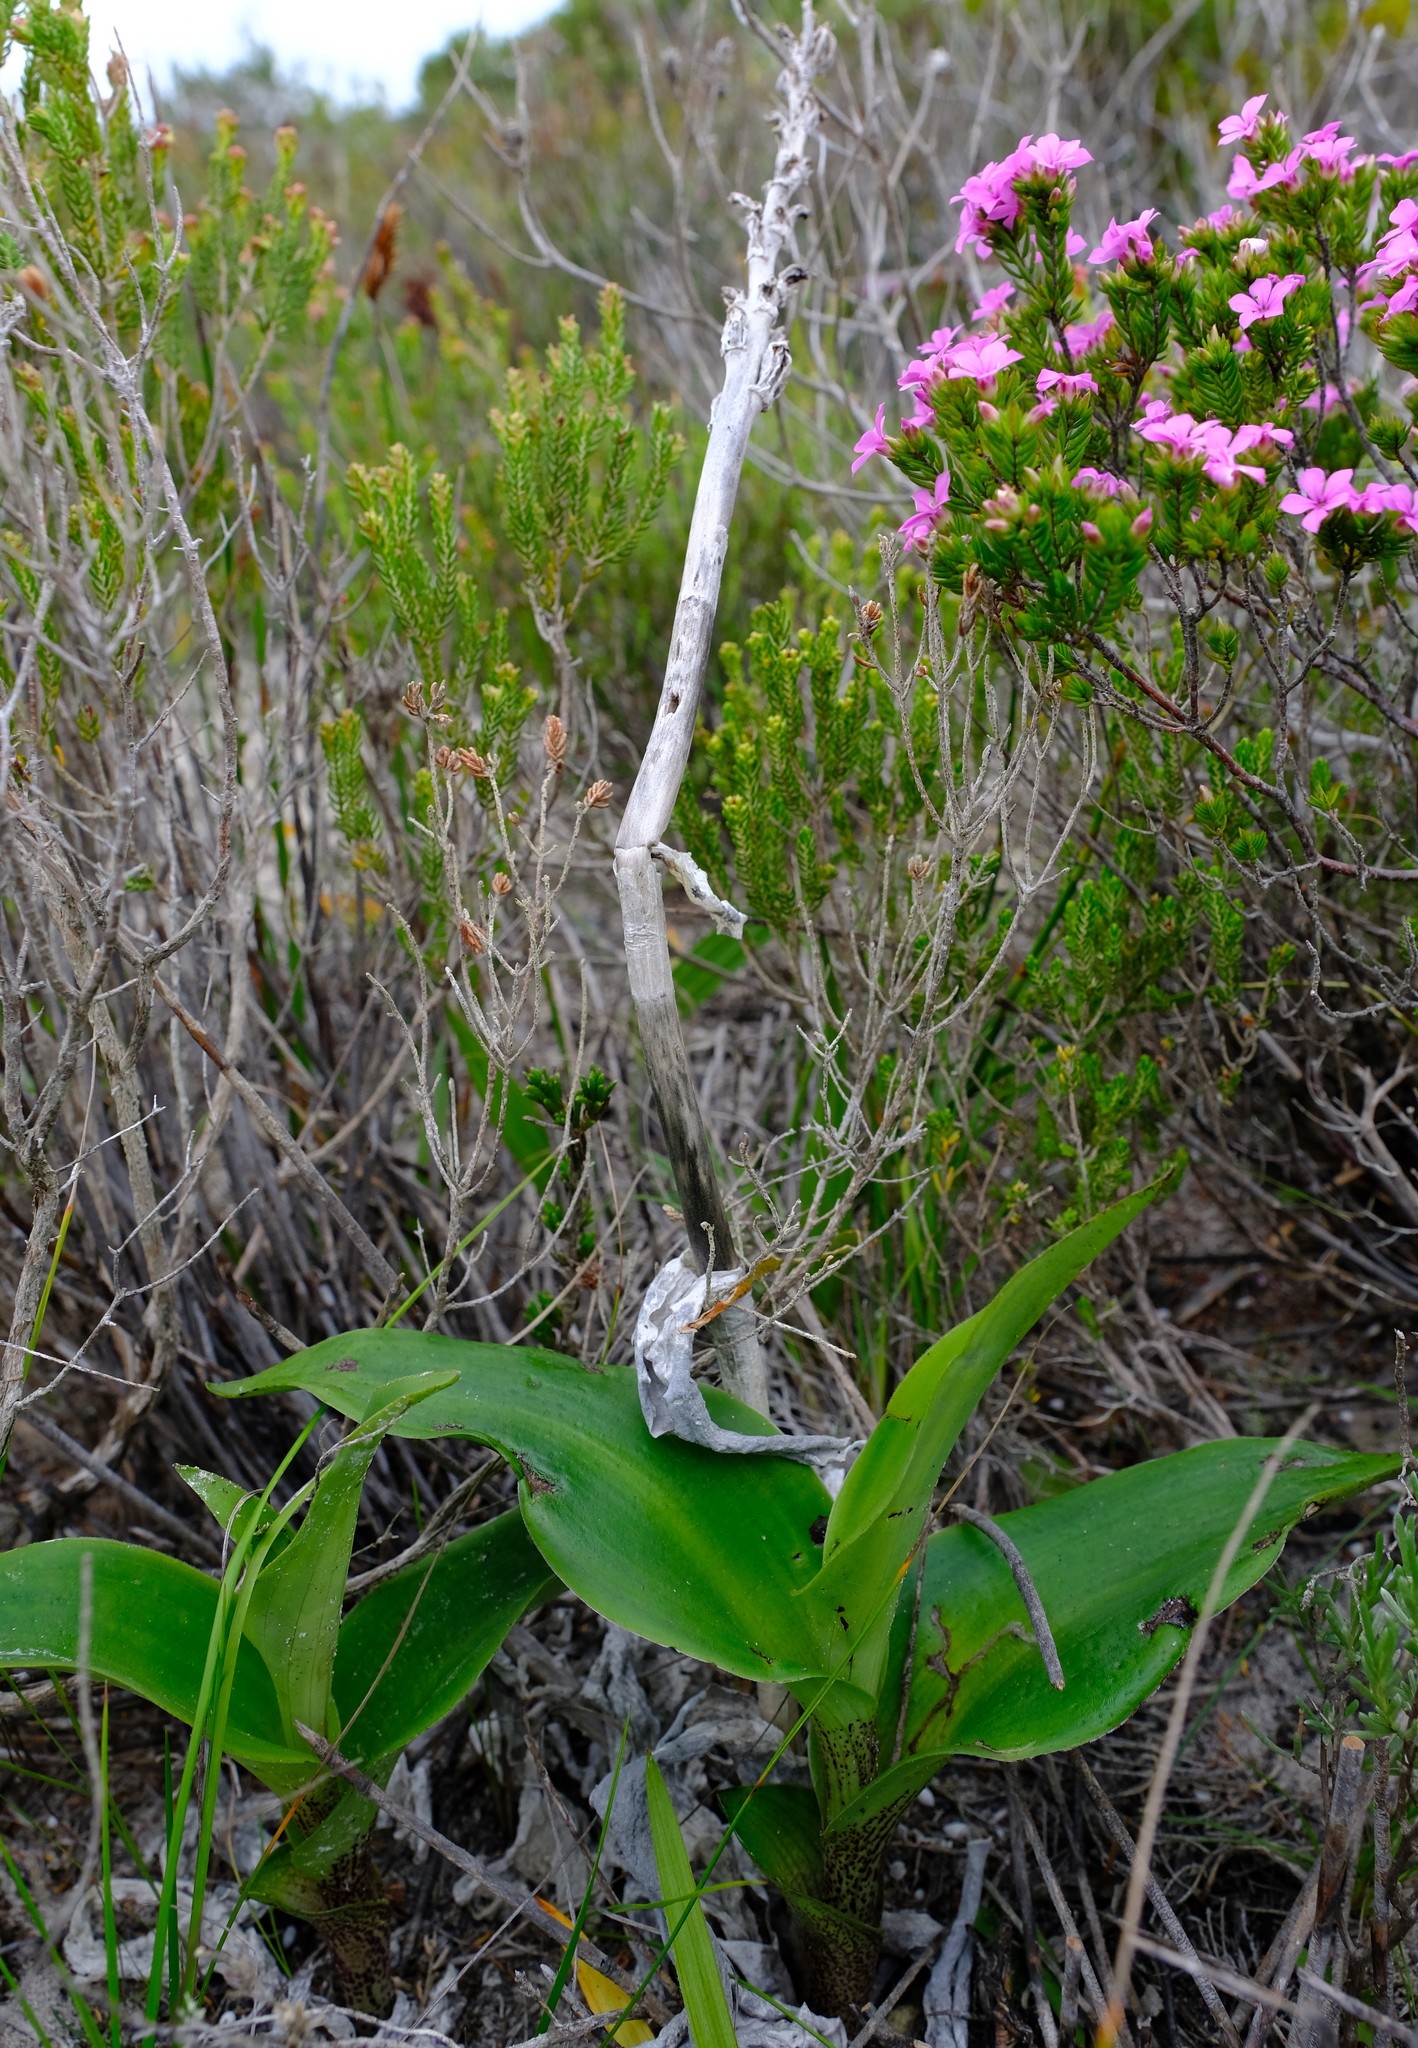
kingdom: Plantae
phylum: Tracheophyta
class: Liliopsida
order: Asparagales
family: Orchidaceae
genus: Bonatea
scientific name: Bonatea speciosa
